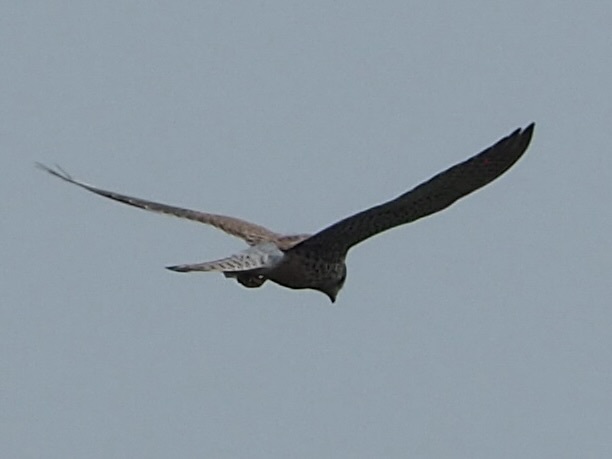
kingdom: Animalia
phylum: Chordata
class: Aves
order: Falconiformes
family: Falconidae
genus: Falco
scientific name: Falco tinnunculus
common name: Common kestrel
